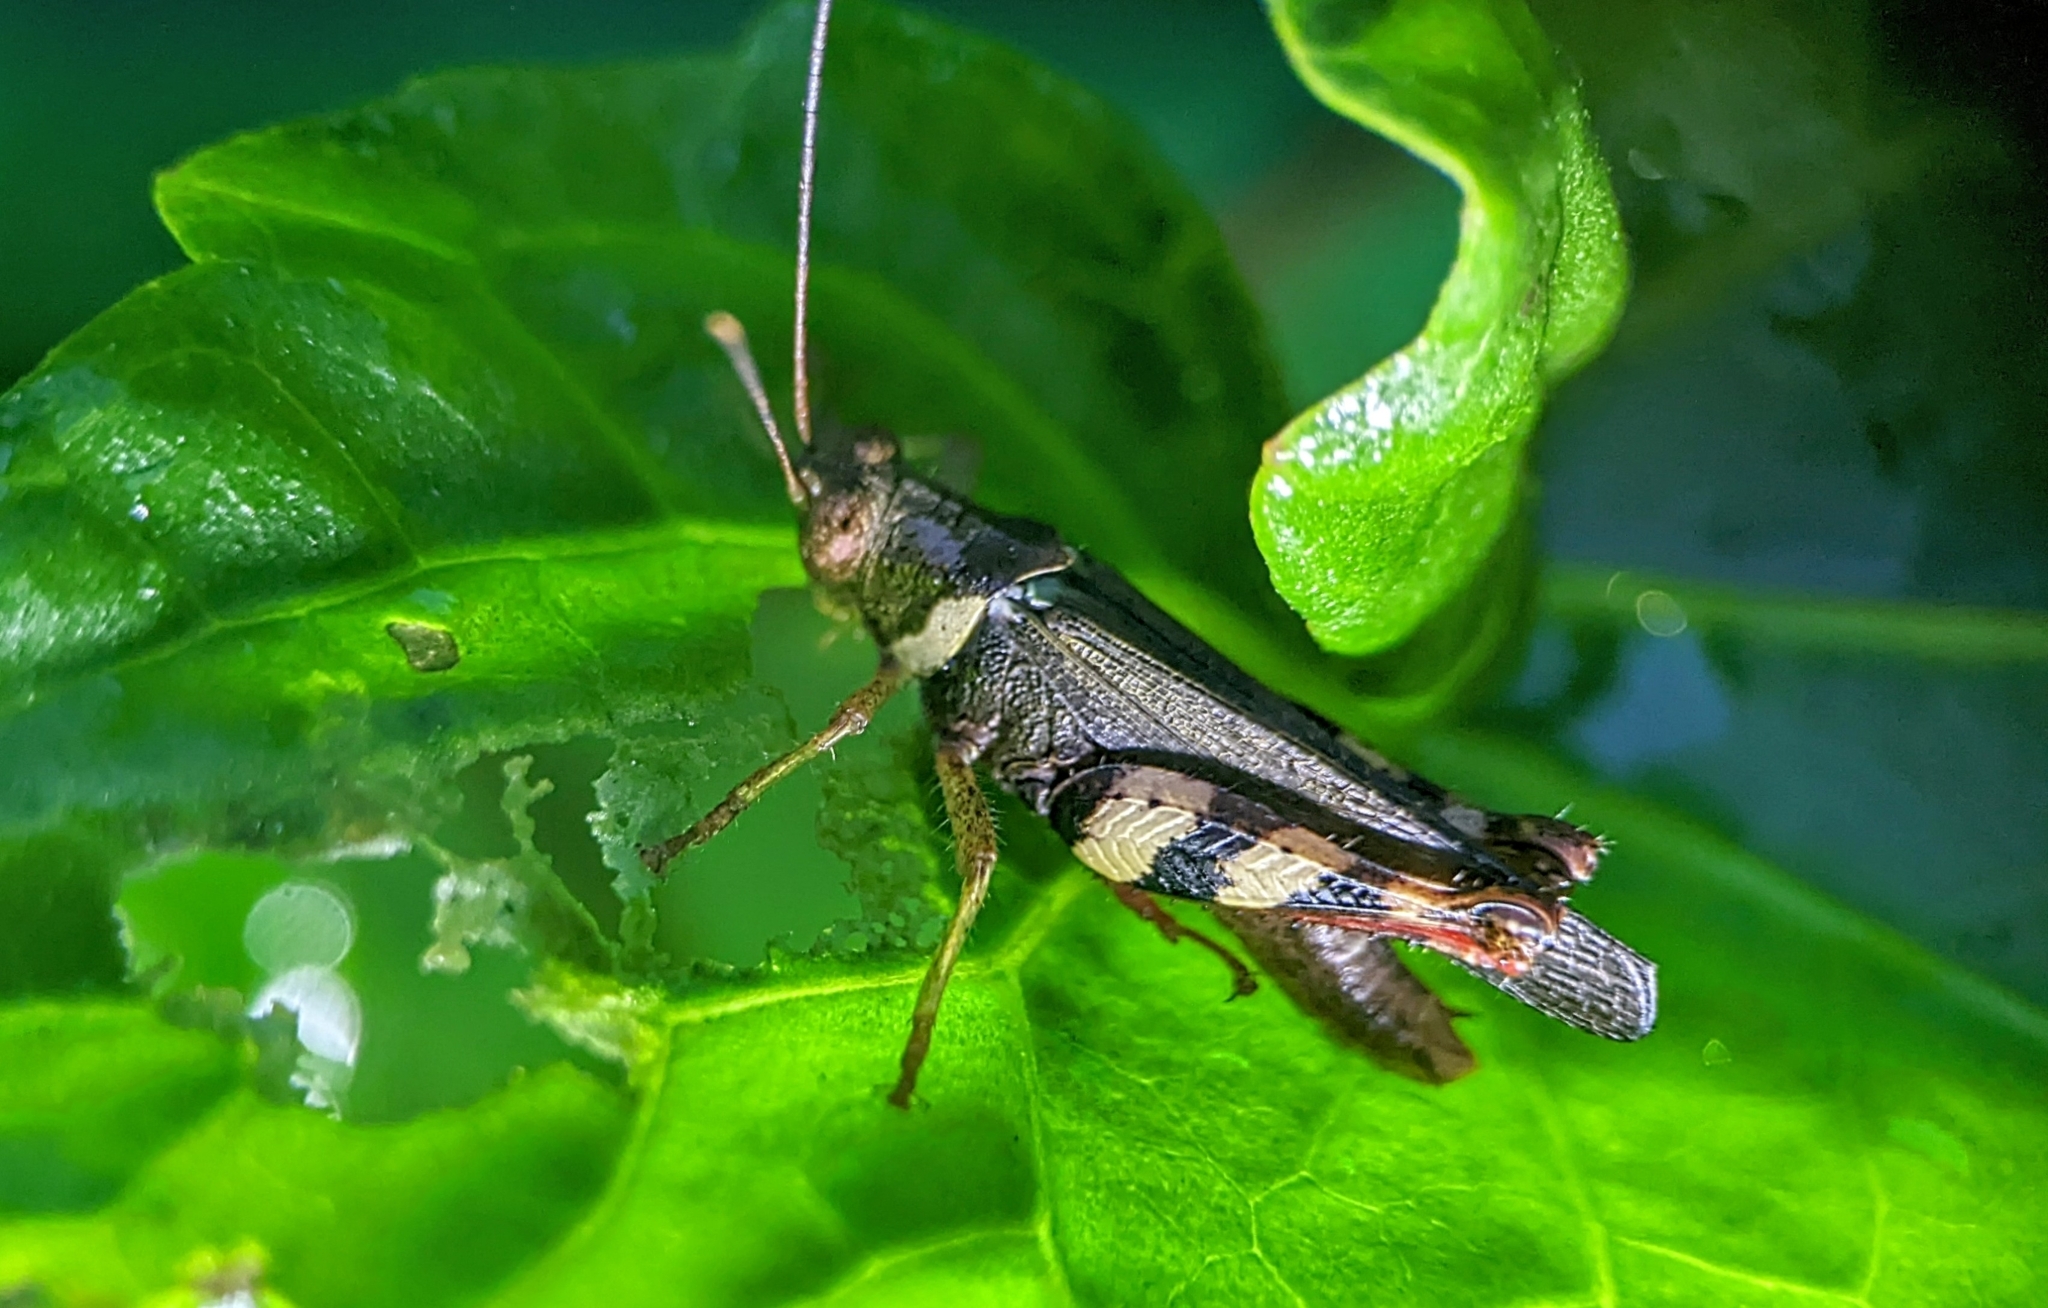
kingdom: Animalia
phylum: Arthropoda
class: Insecta
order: Orthoptera
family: Acrididae
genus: Apalacris
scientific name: Apalacris varicornis
